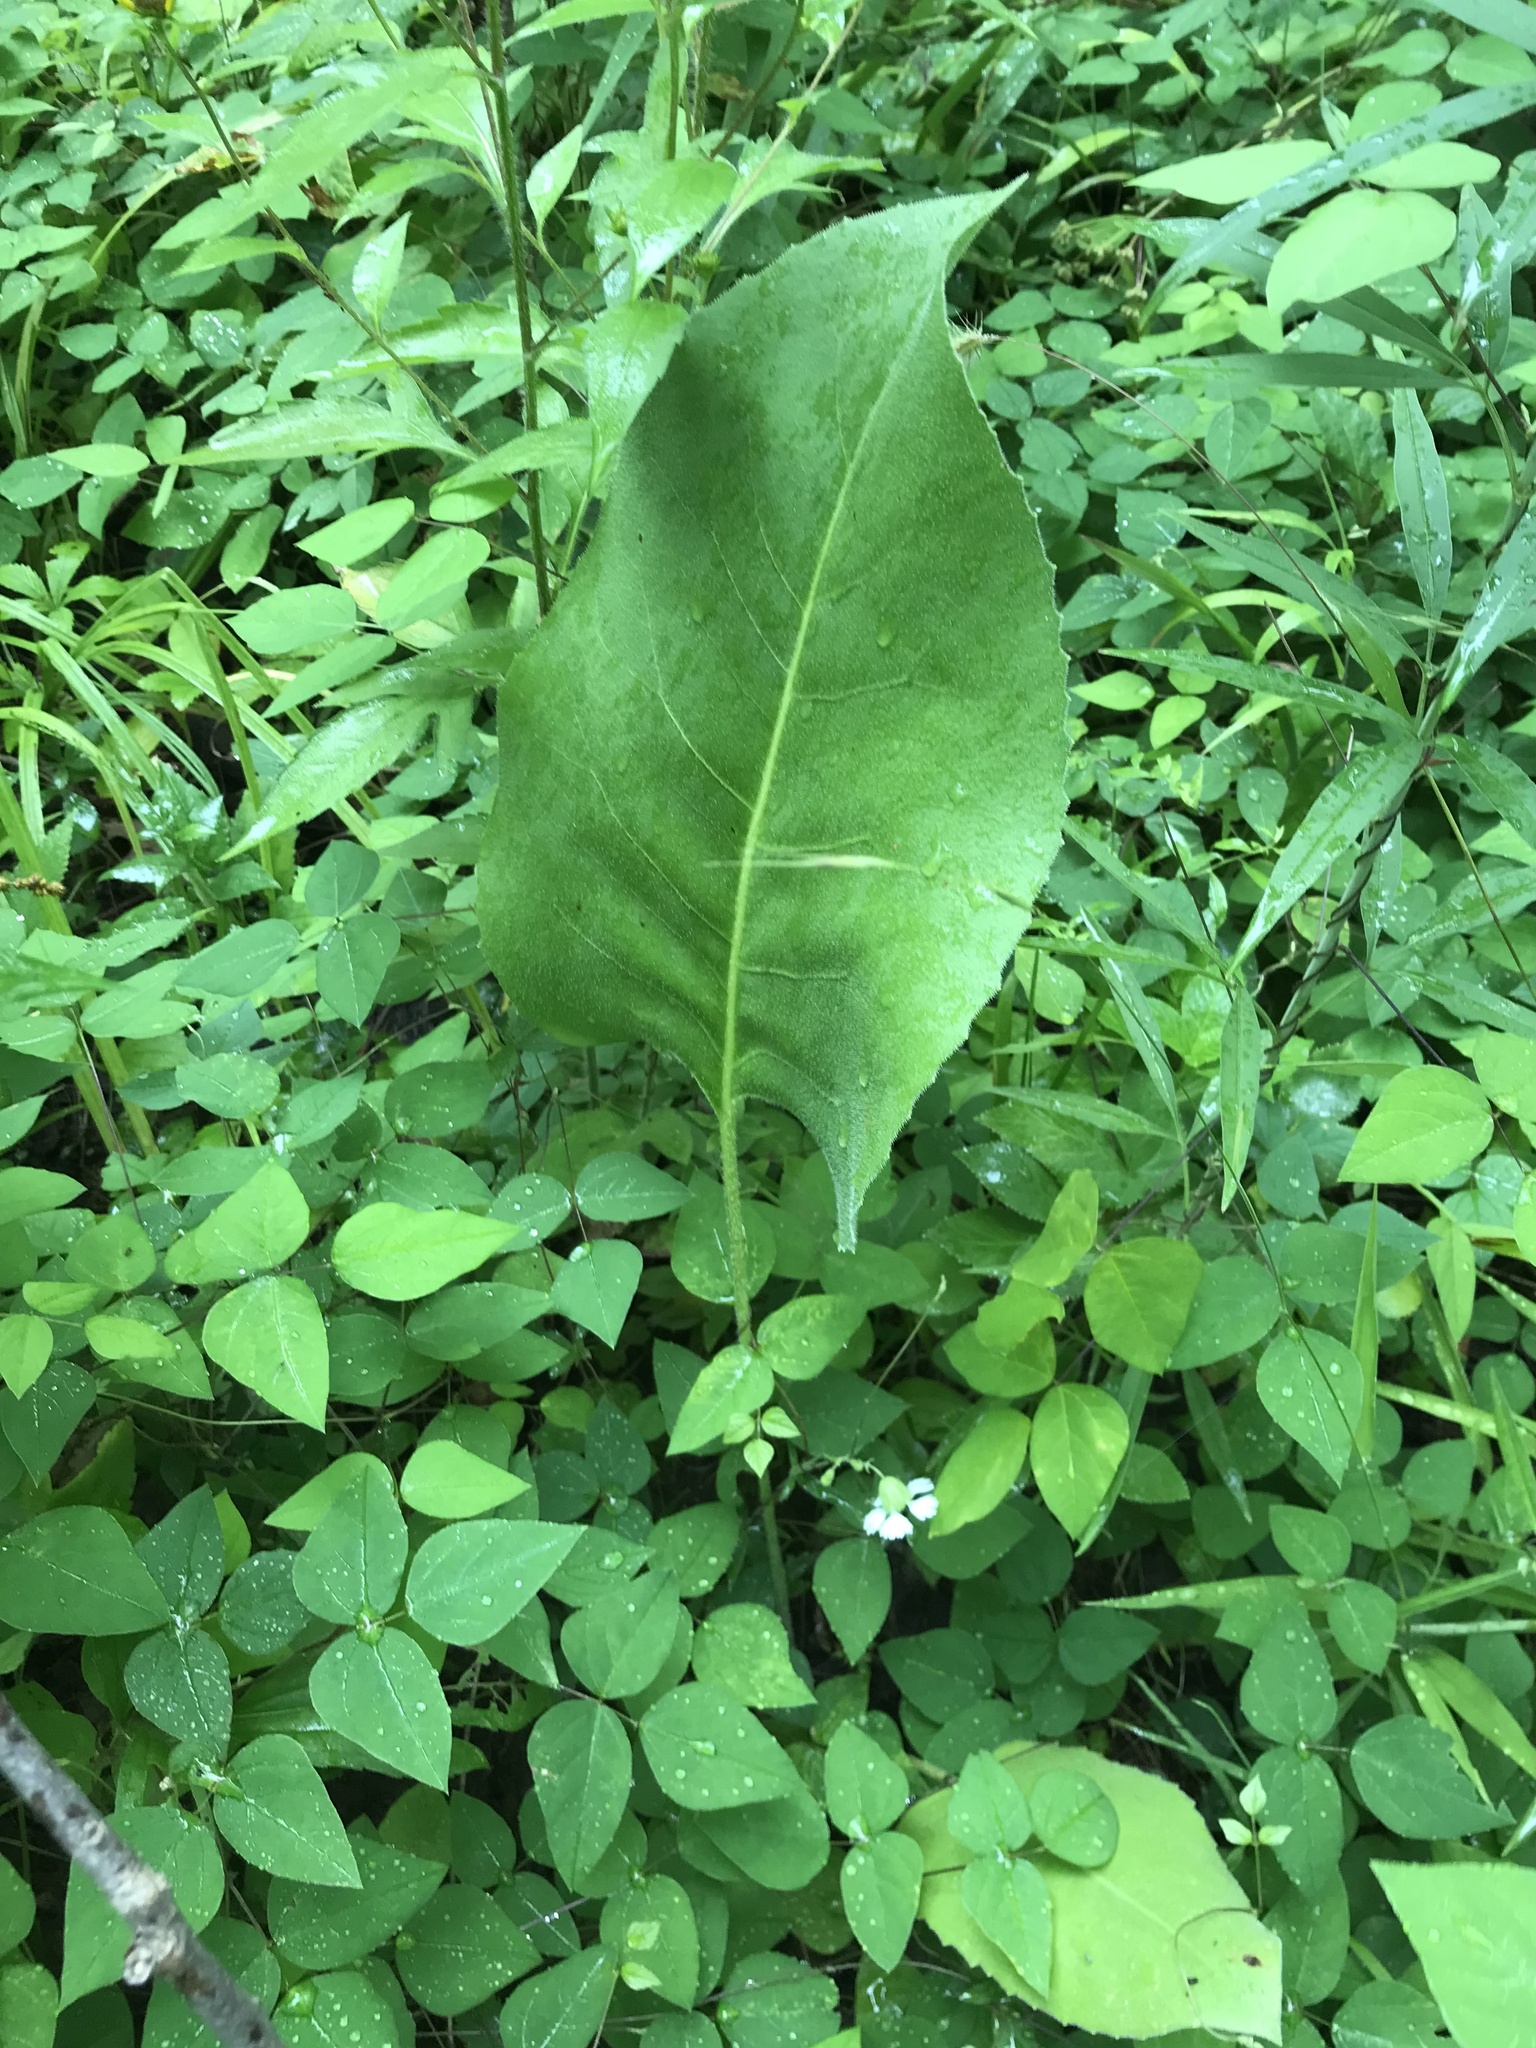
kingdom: Plantae
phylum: Tracheophyta
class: Magnoliopsida
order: Asterales
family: Asteraceae
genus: Silphium
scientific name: Silphium terebinthinaceum
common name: Basal-leaf rosinweed
